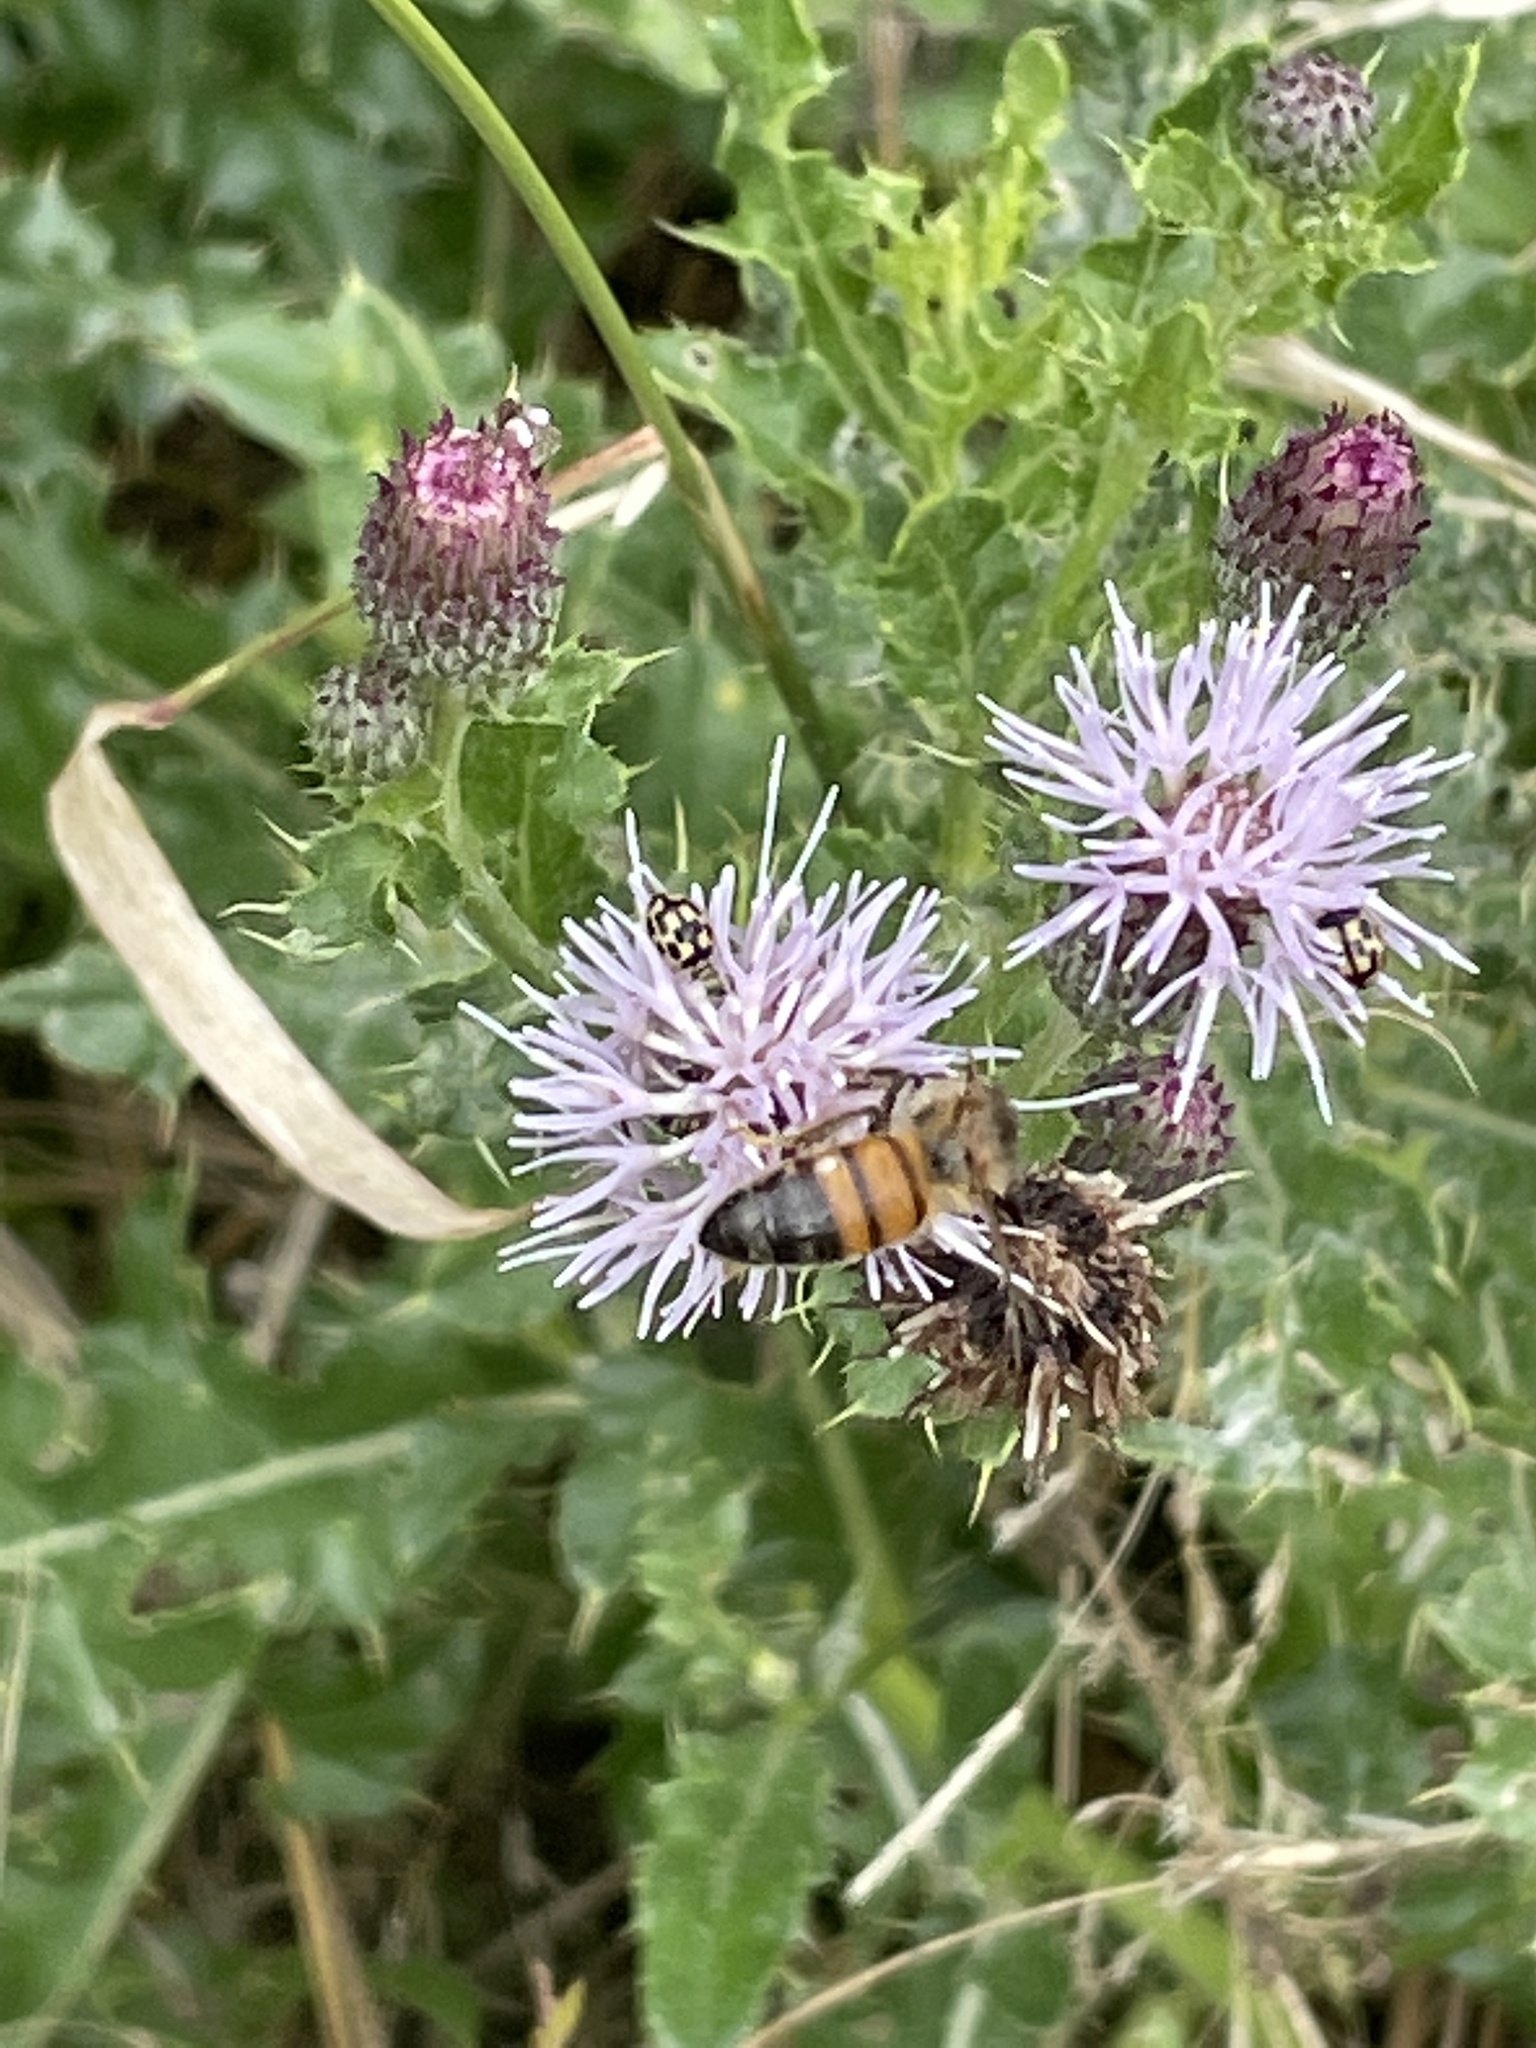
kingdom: Plantae
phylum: Tracheophyta
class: Magnoliopsida
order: Asterales
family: Asteraceae
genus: Cirsium
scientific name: Cirsium arvense
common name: Creeping thistle
